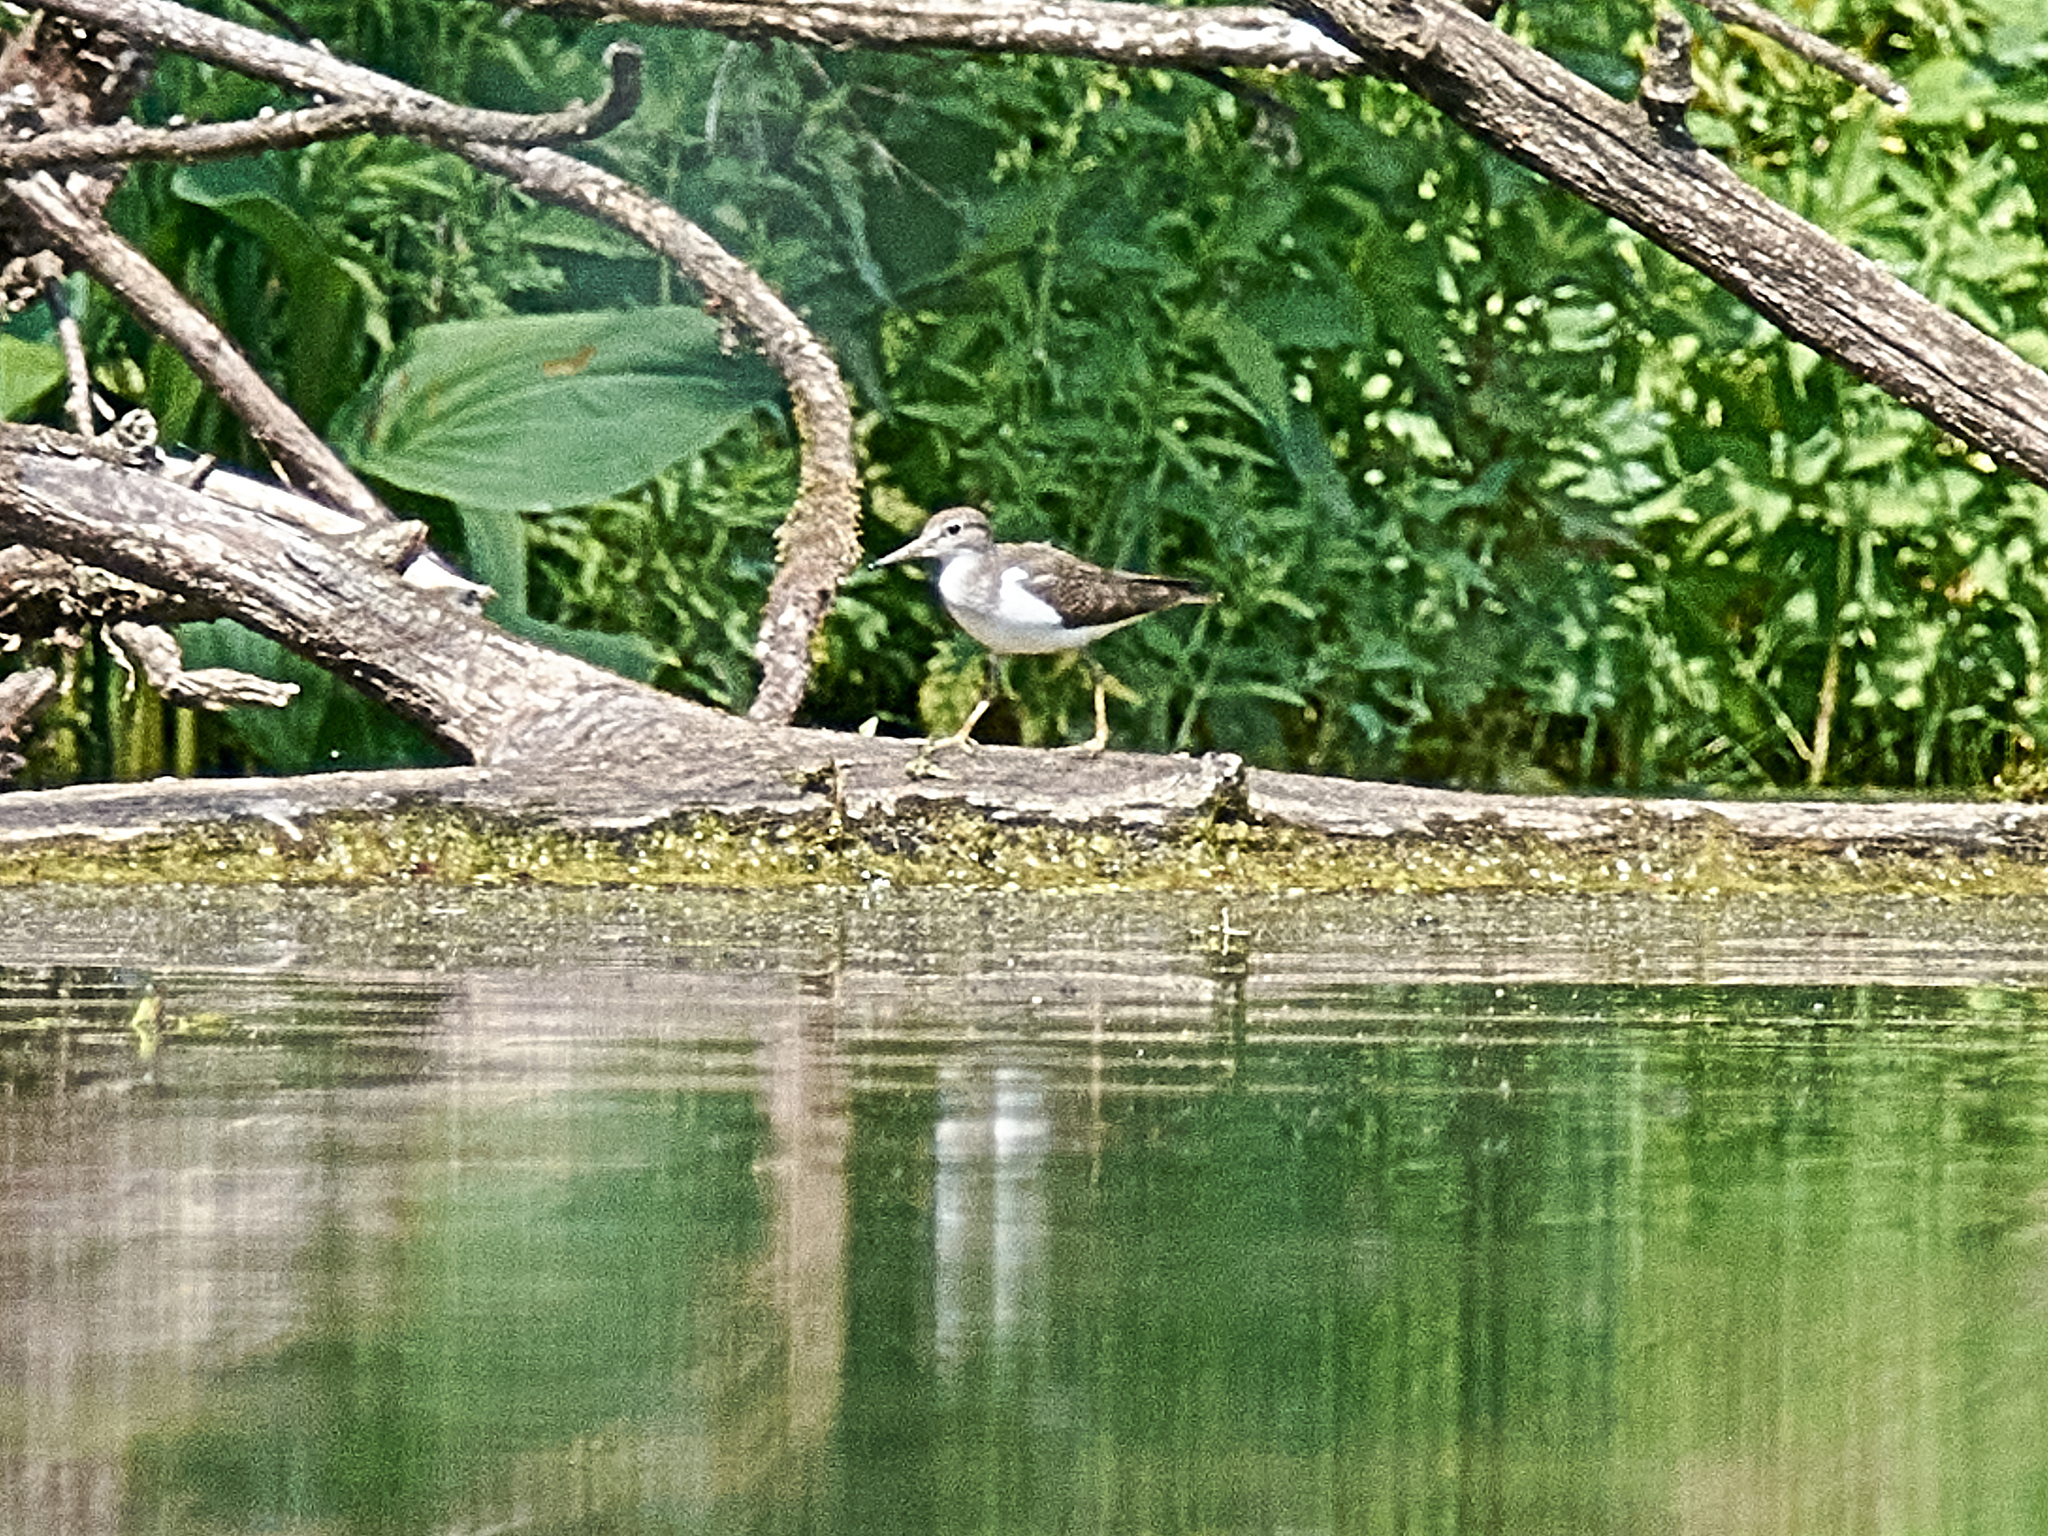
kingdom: Animalia
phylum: Chordata
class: Aves
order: Charadriiformes
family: Scolopacidae
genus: Actitis
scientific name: Actitis hypoleucos
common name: Common sandpiper
